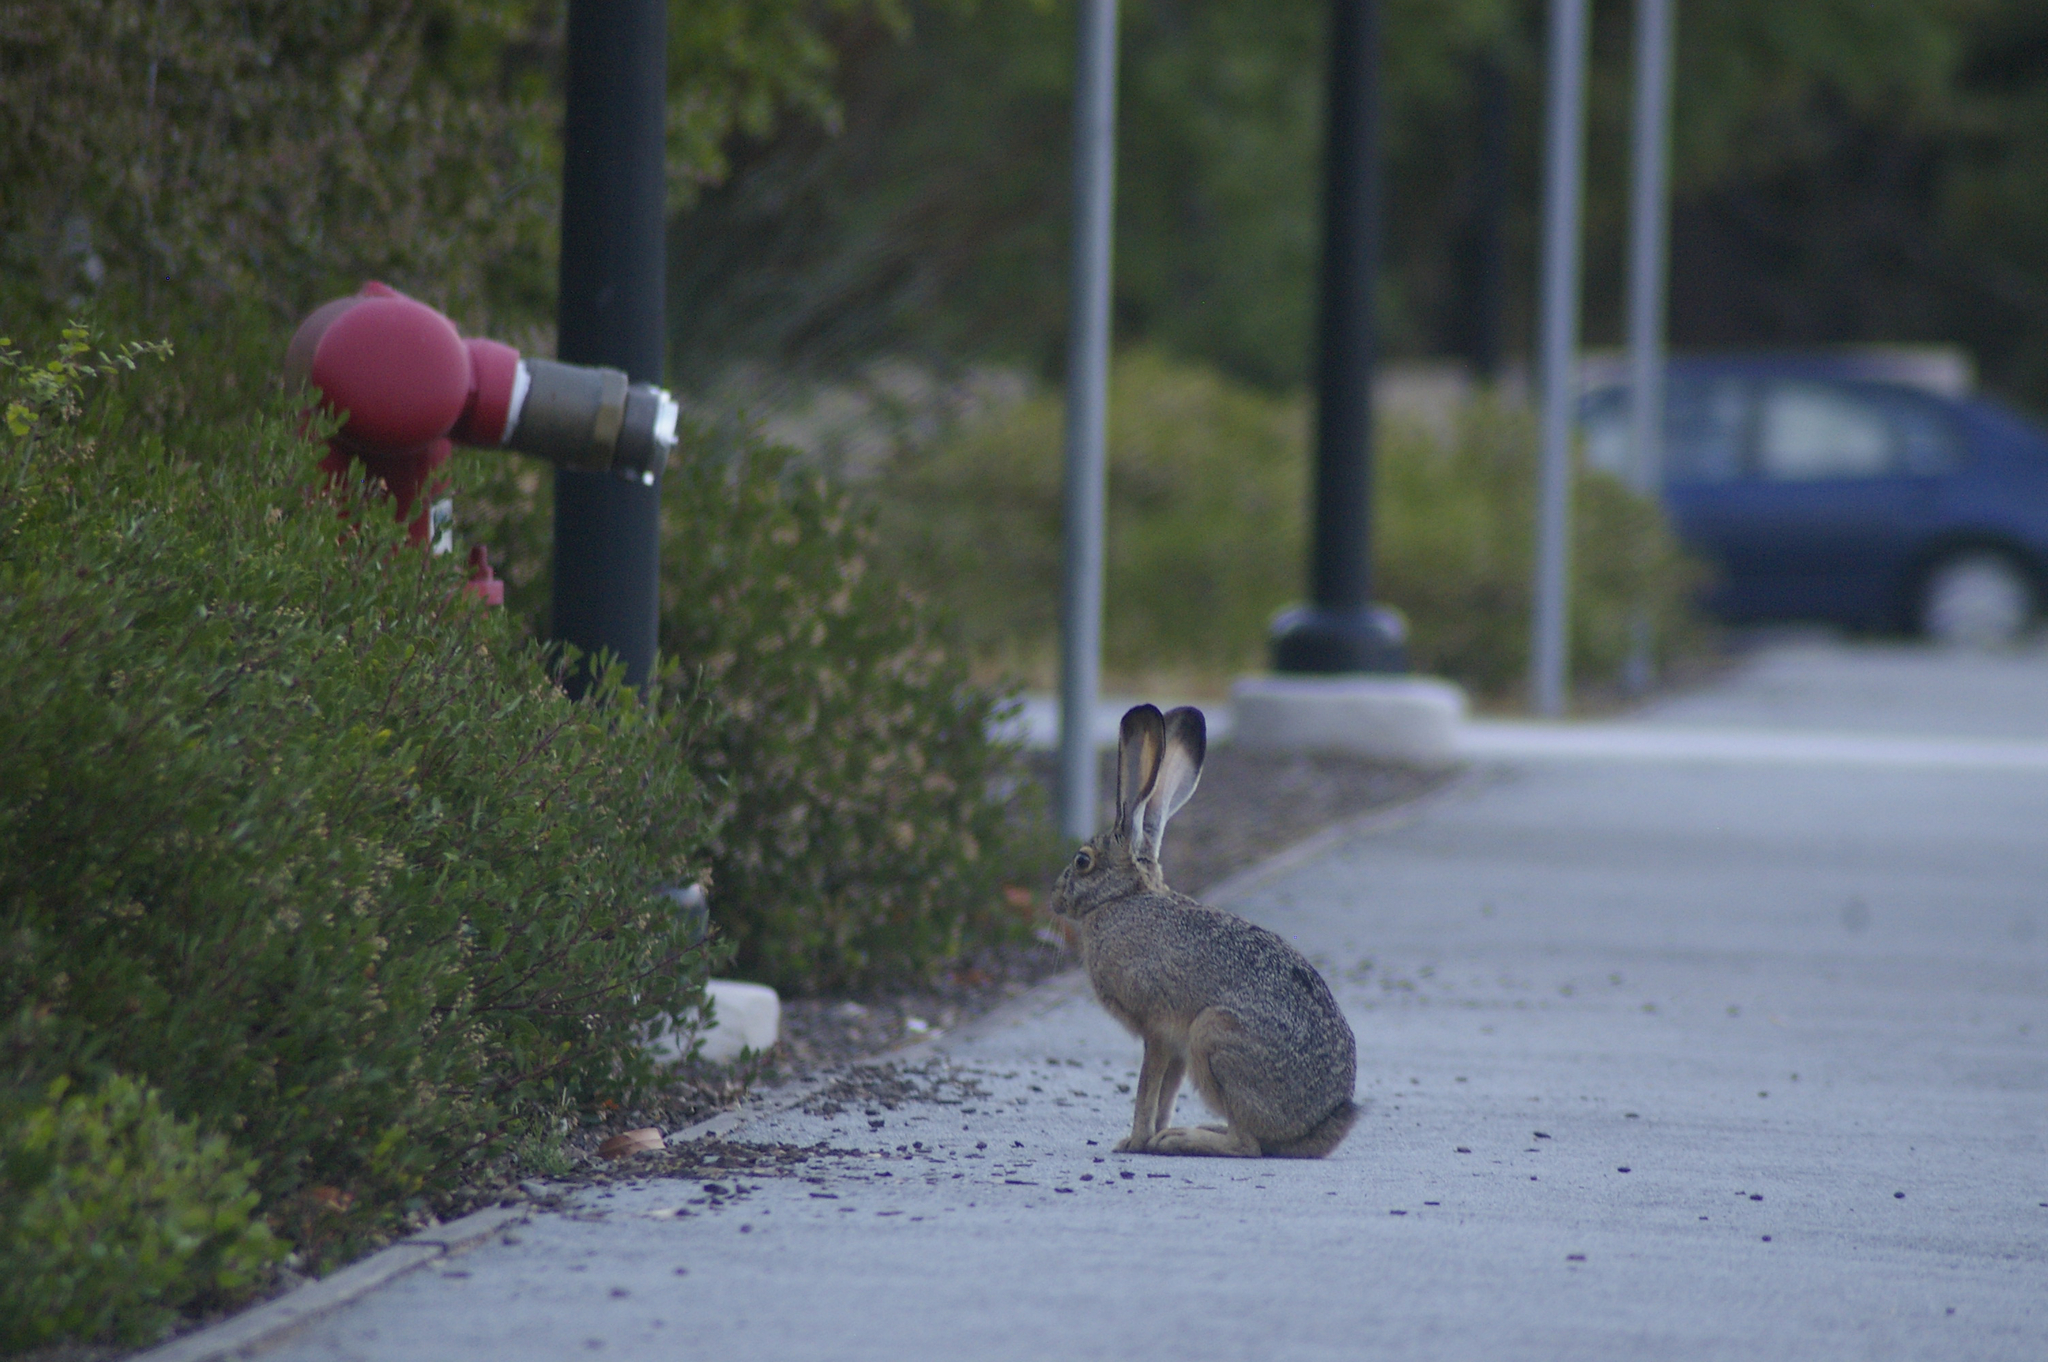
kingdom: Animalia
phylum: Chordata
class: Mammalia
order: Lagomorpha
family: Leporidae
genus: Lepus
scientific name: Lepus californicus
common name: Black-tailed jackrabbit
